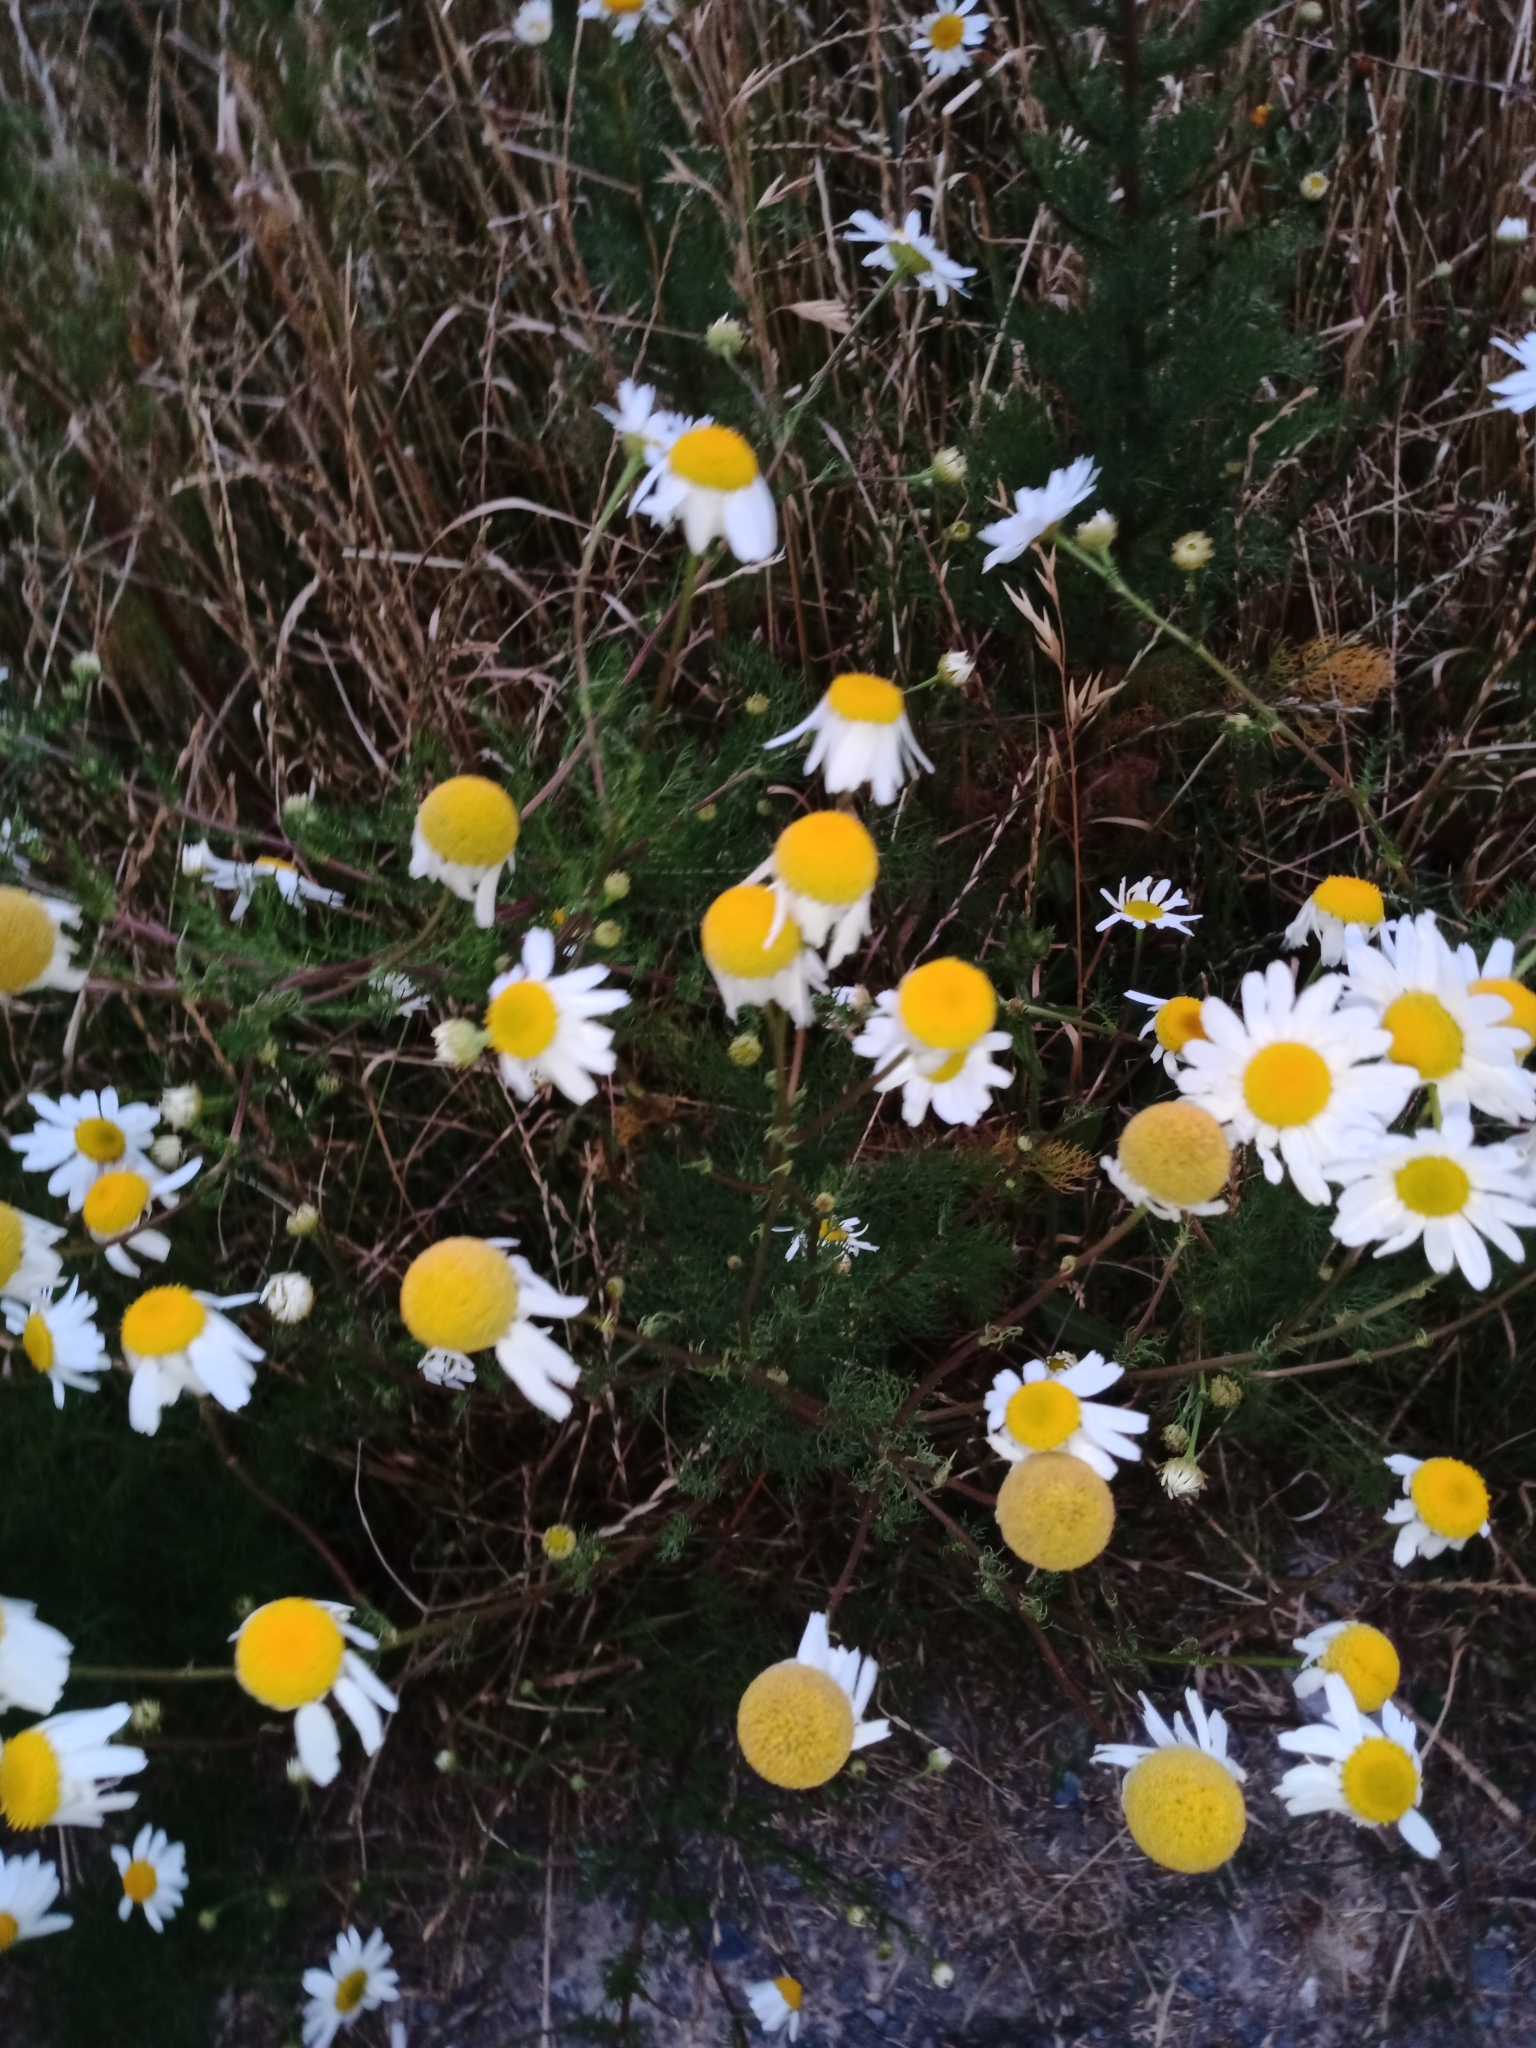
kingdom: Plantae
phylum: Tracheophyta
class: Magnoliopsida
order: Asterales
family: Asteraceae
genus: Anthemis
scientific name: Anthemis cotula
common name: Stinking chamomile
